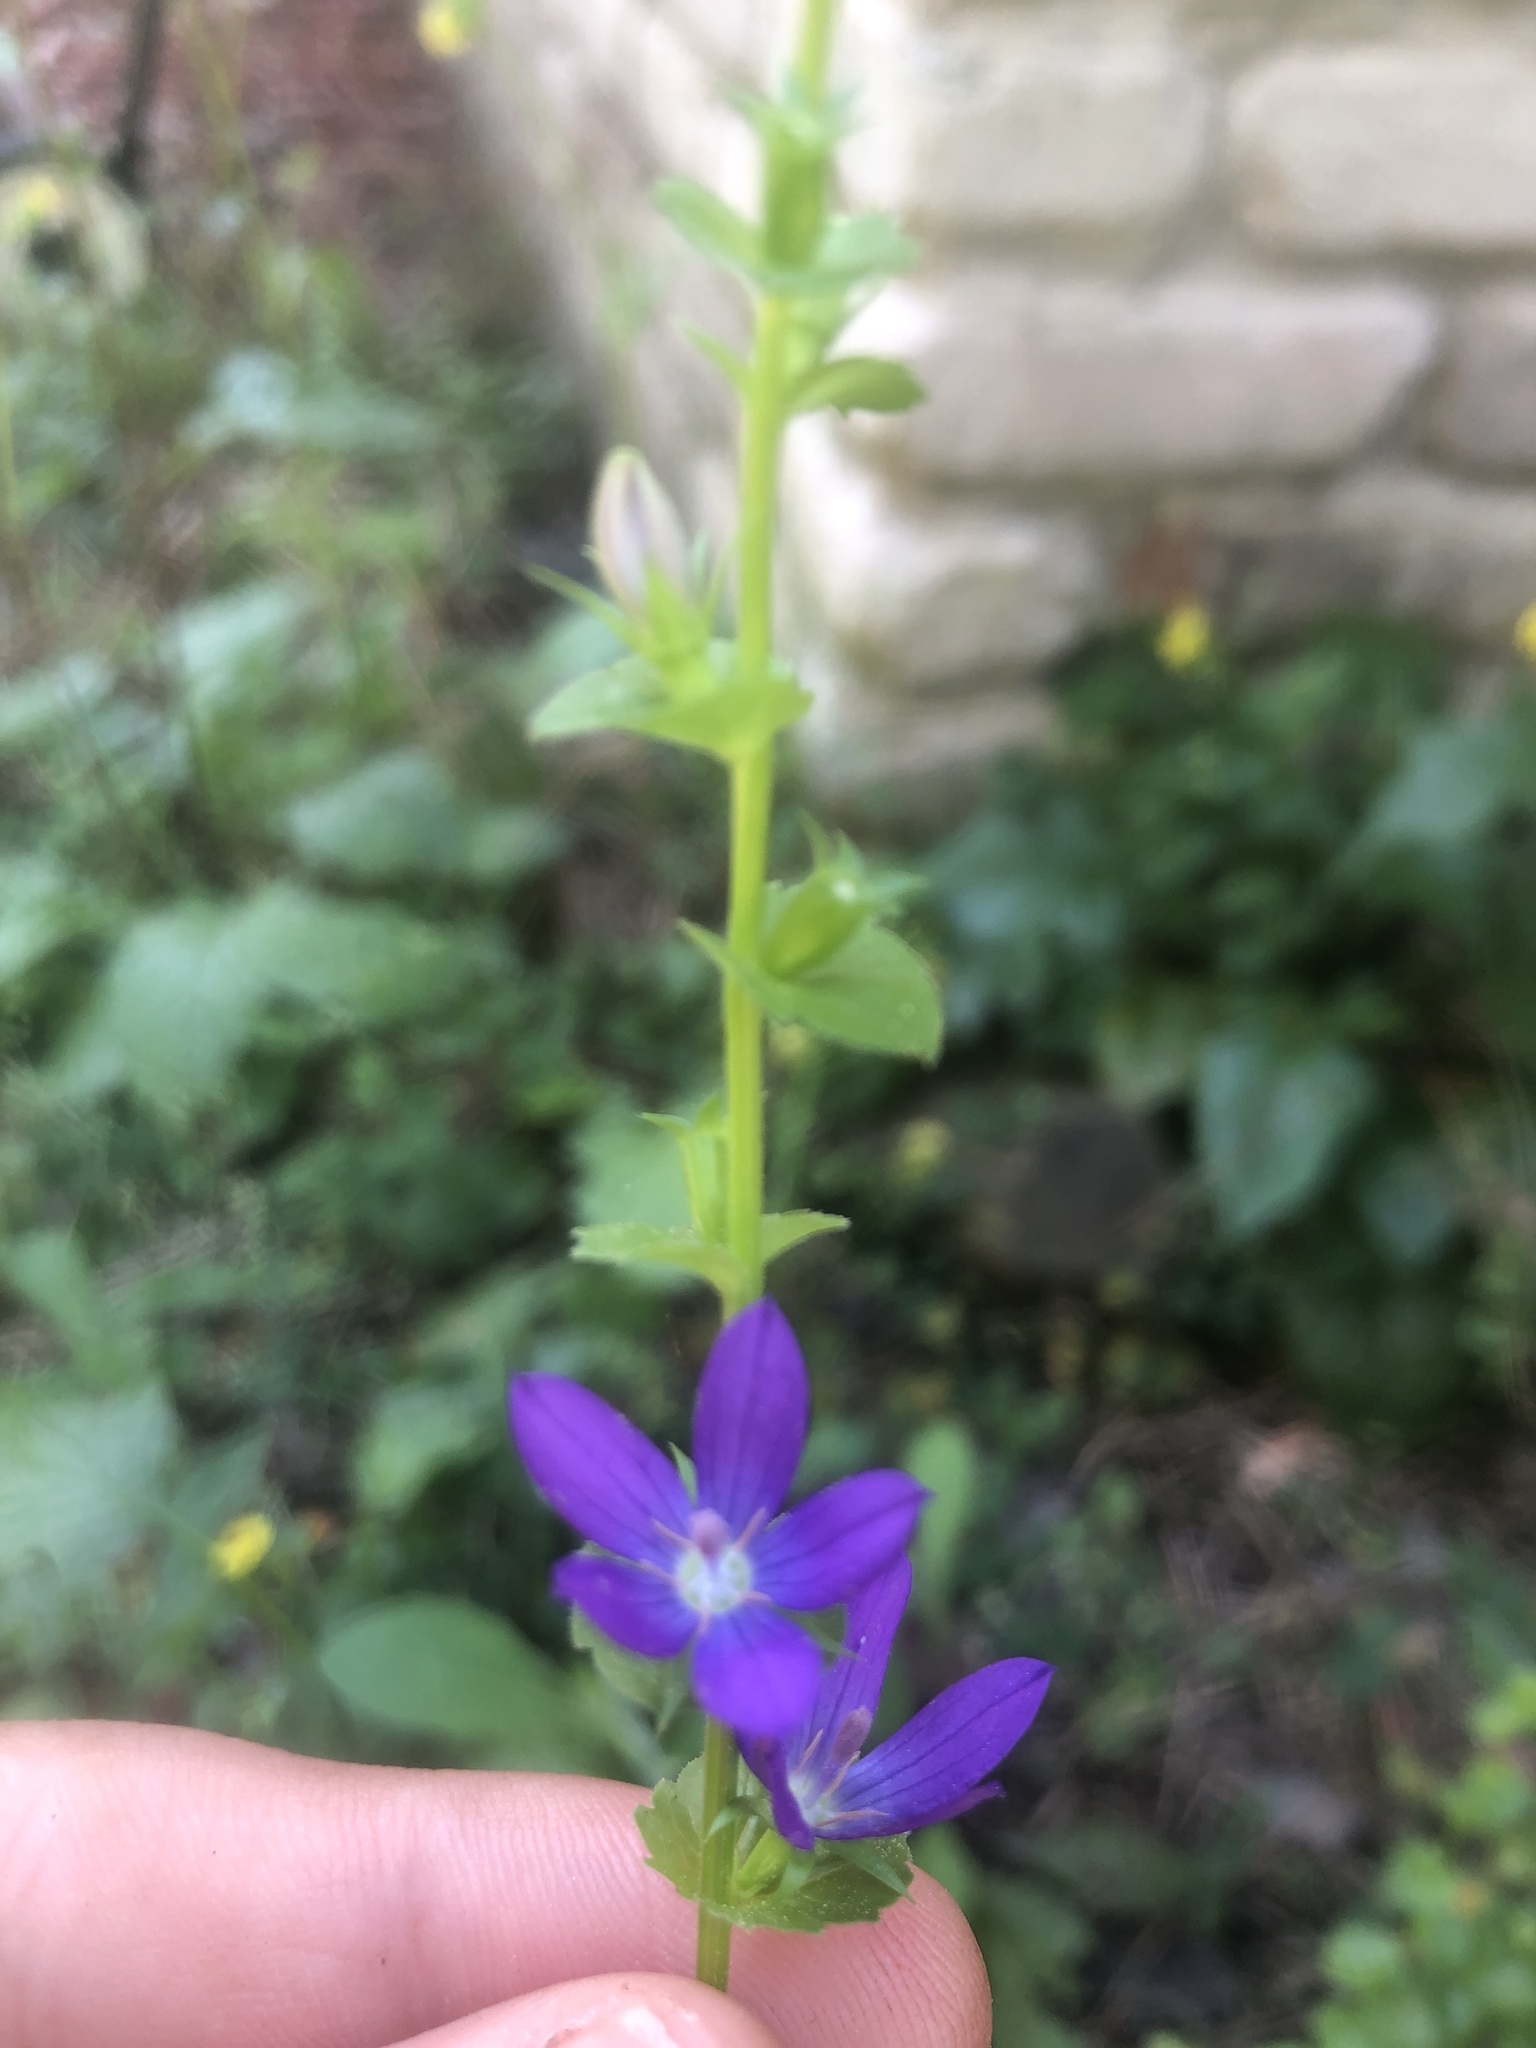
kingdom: Plantae
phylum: Tracheophyta
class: Magnoliopsida
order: Asterales
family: Campanulaceae
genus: Triodanis
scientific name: Triodanis perfoliata
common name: Clasping venus' looking-glass
